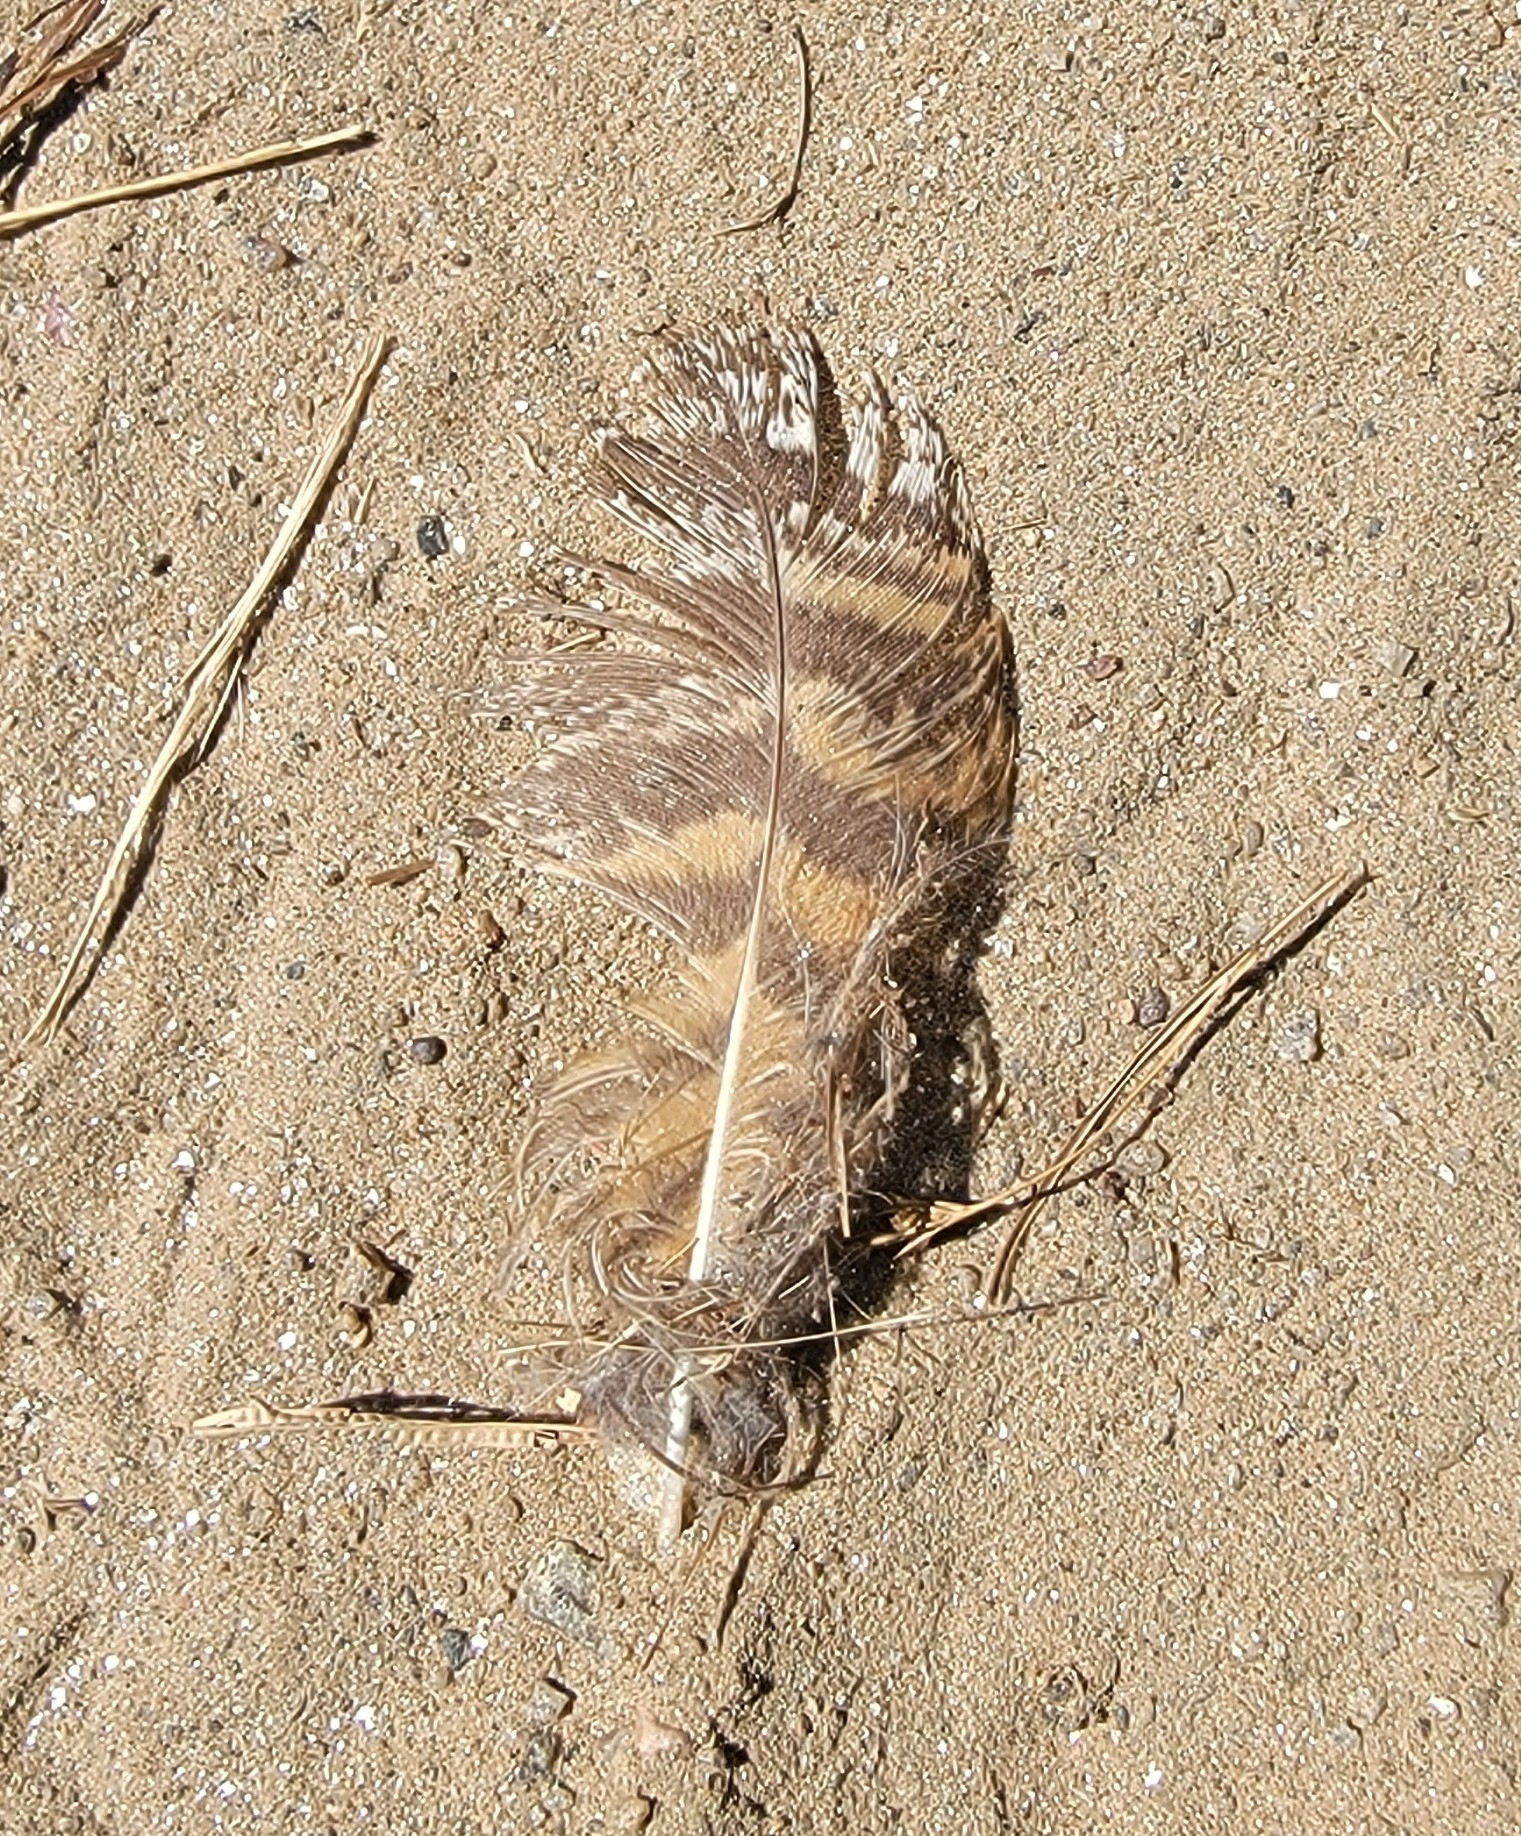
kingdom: Animalia
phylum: Chordata
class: Aves
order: Strigiformes
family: Strigidae
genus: Bubo
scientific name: Bubo virginianus
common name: Great horned owl
